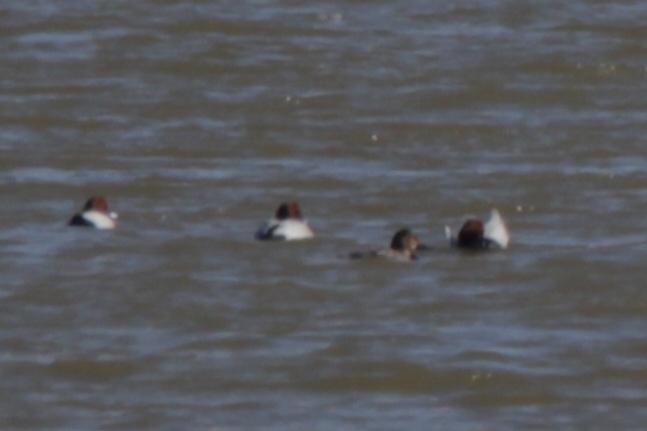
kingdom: Animalia
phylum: Chordata
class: Aves
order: Anseriformes
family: Anatidae
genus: Aythya
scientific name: Aythya ferina
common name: Common pochard
